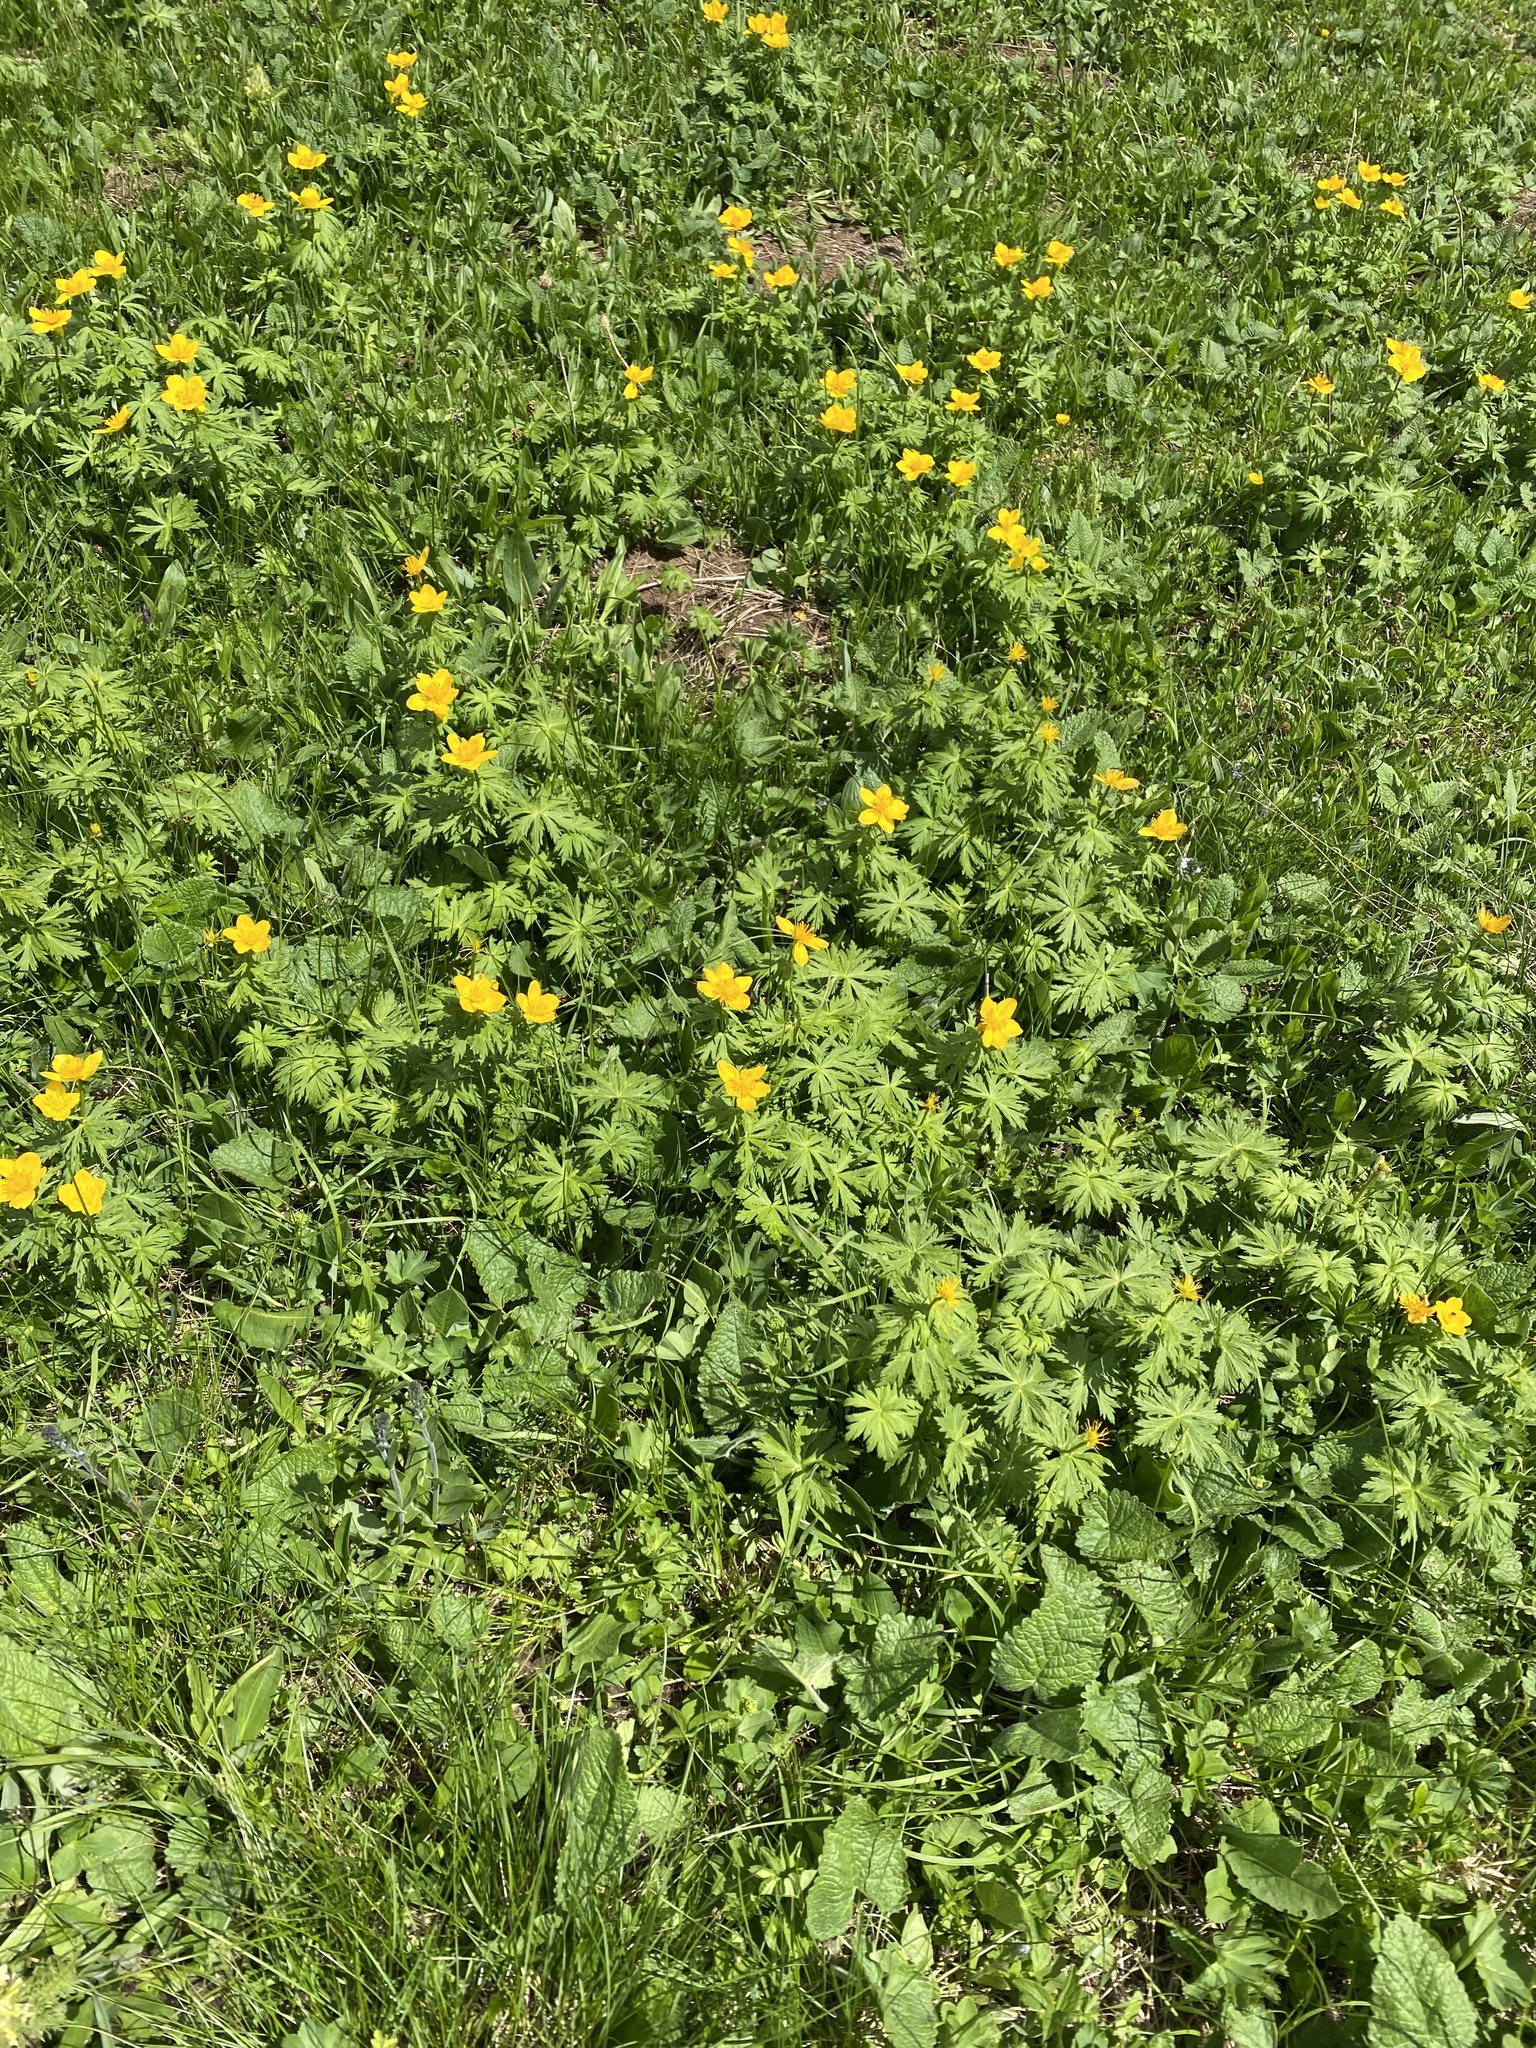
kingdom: Plantae
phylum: Tracheophyta
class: Magnoliopsida
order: Ranunculales
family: Ranunculaceae
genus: Trollius
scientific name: Trollius ranunculinus
